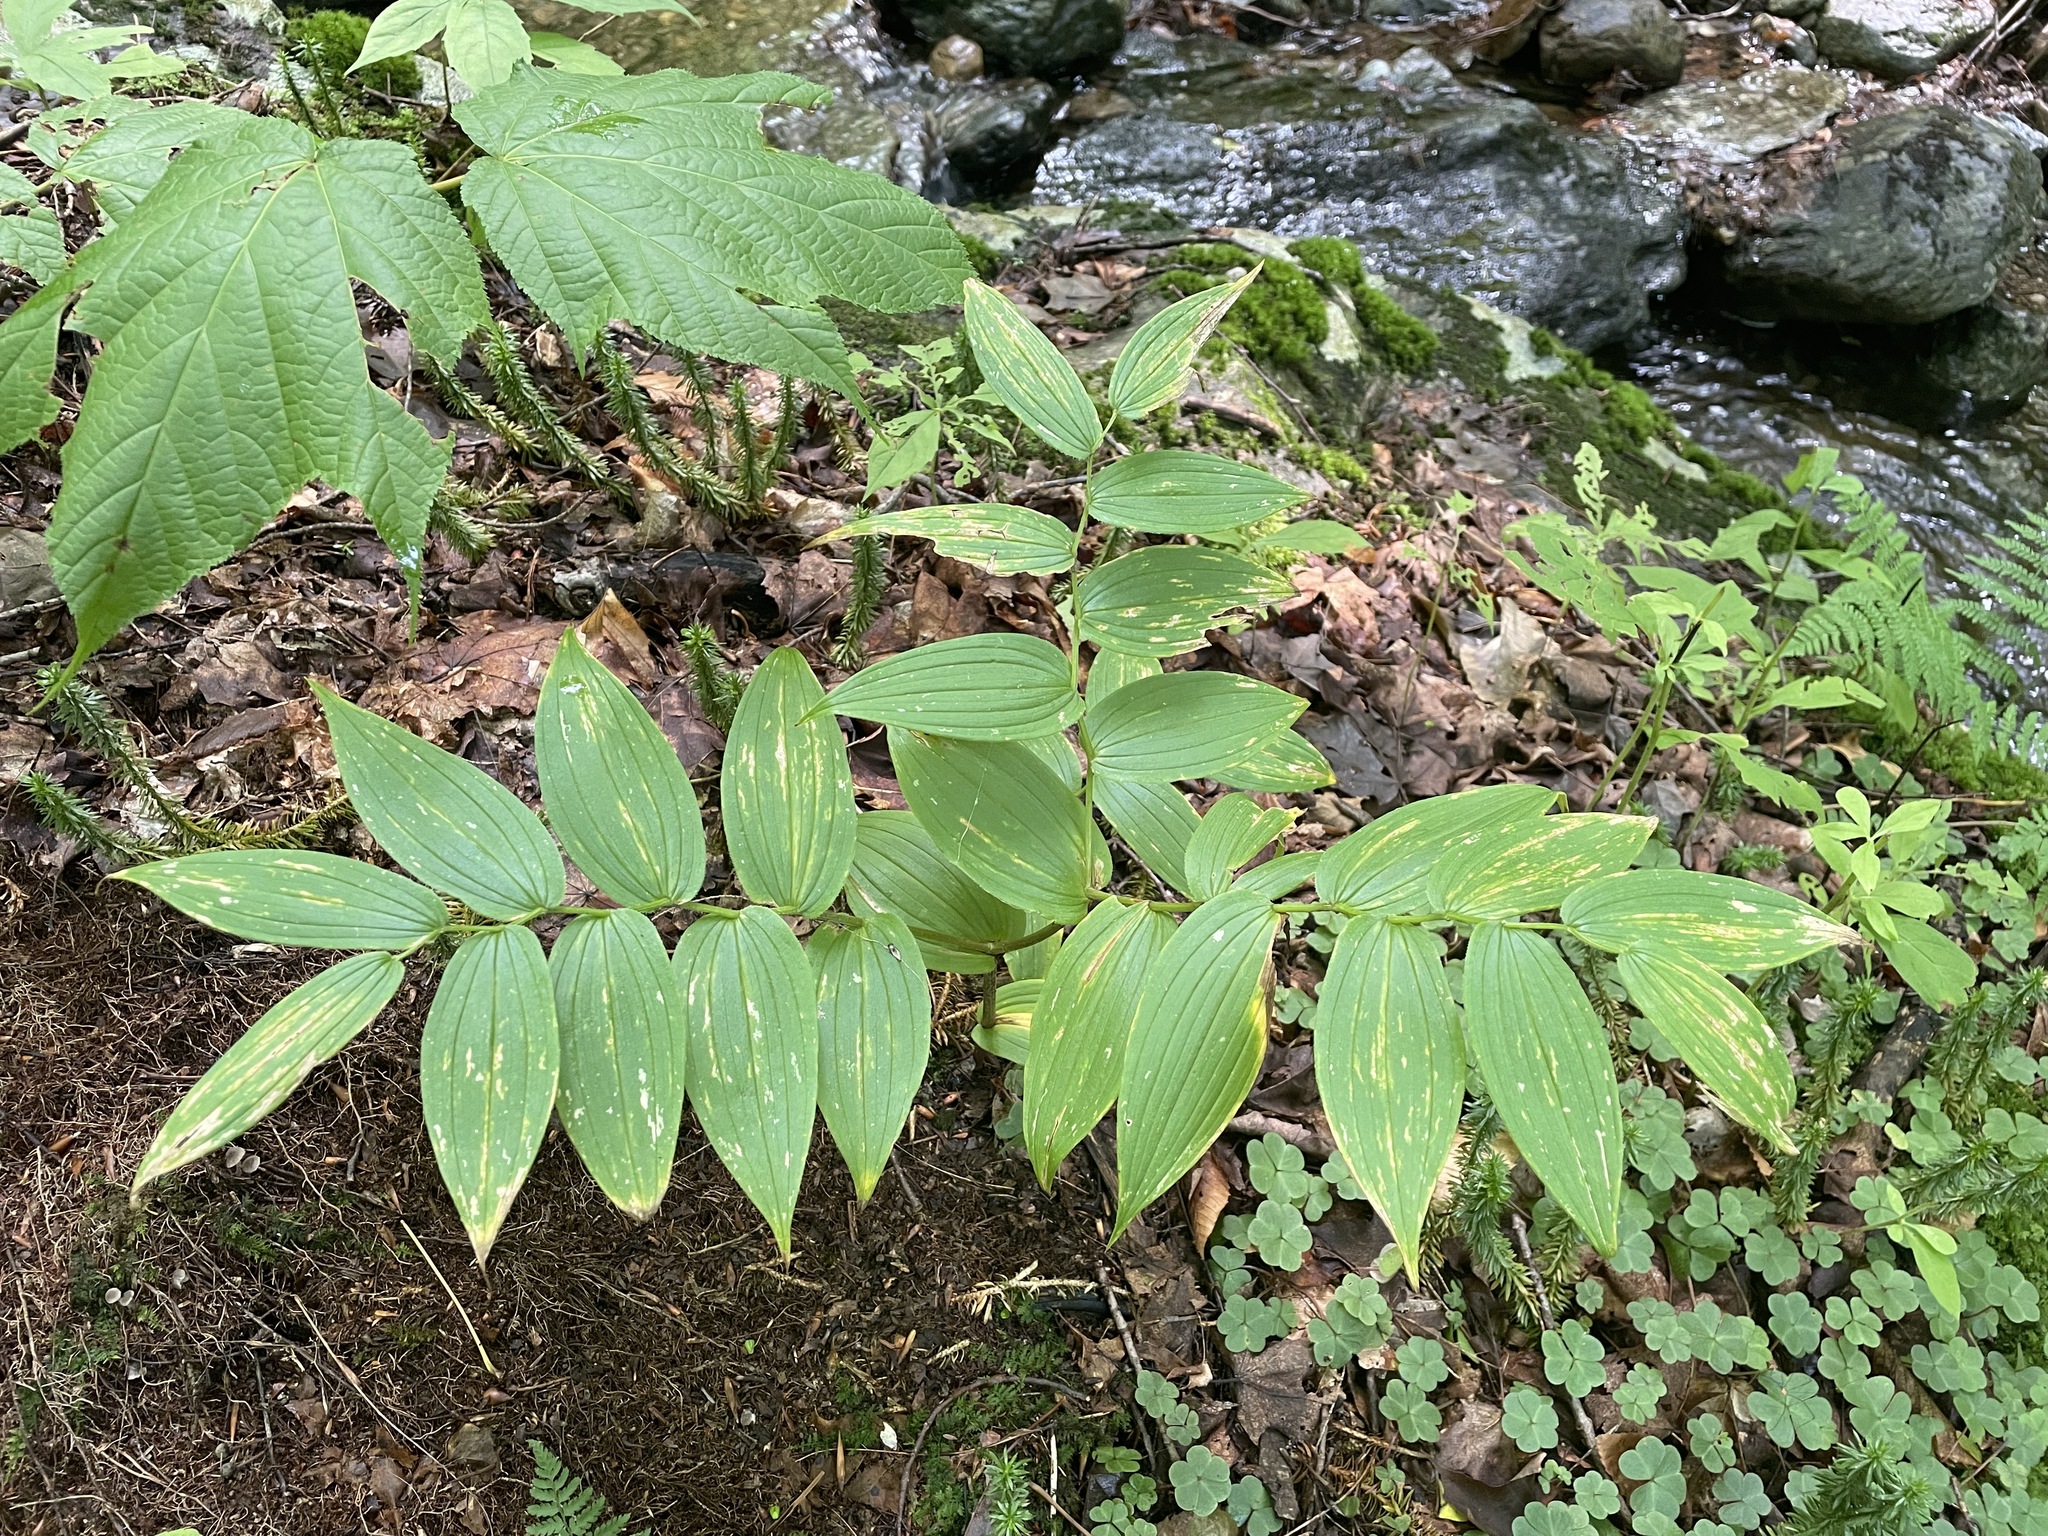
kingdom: Plantae
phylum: Tracheophyta
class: Liliopsida
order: Liliales
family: Liliaceae
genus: Streptopus
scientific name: Streptopus lanceolatus
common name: Rose mandarin
